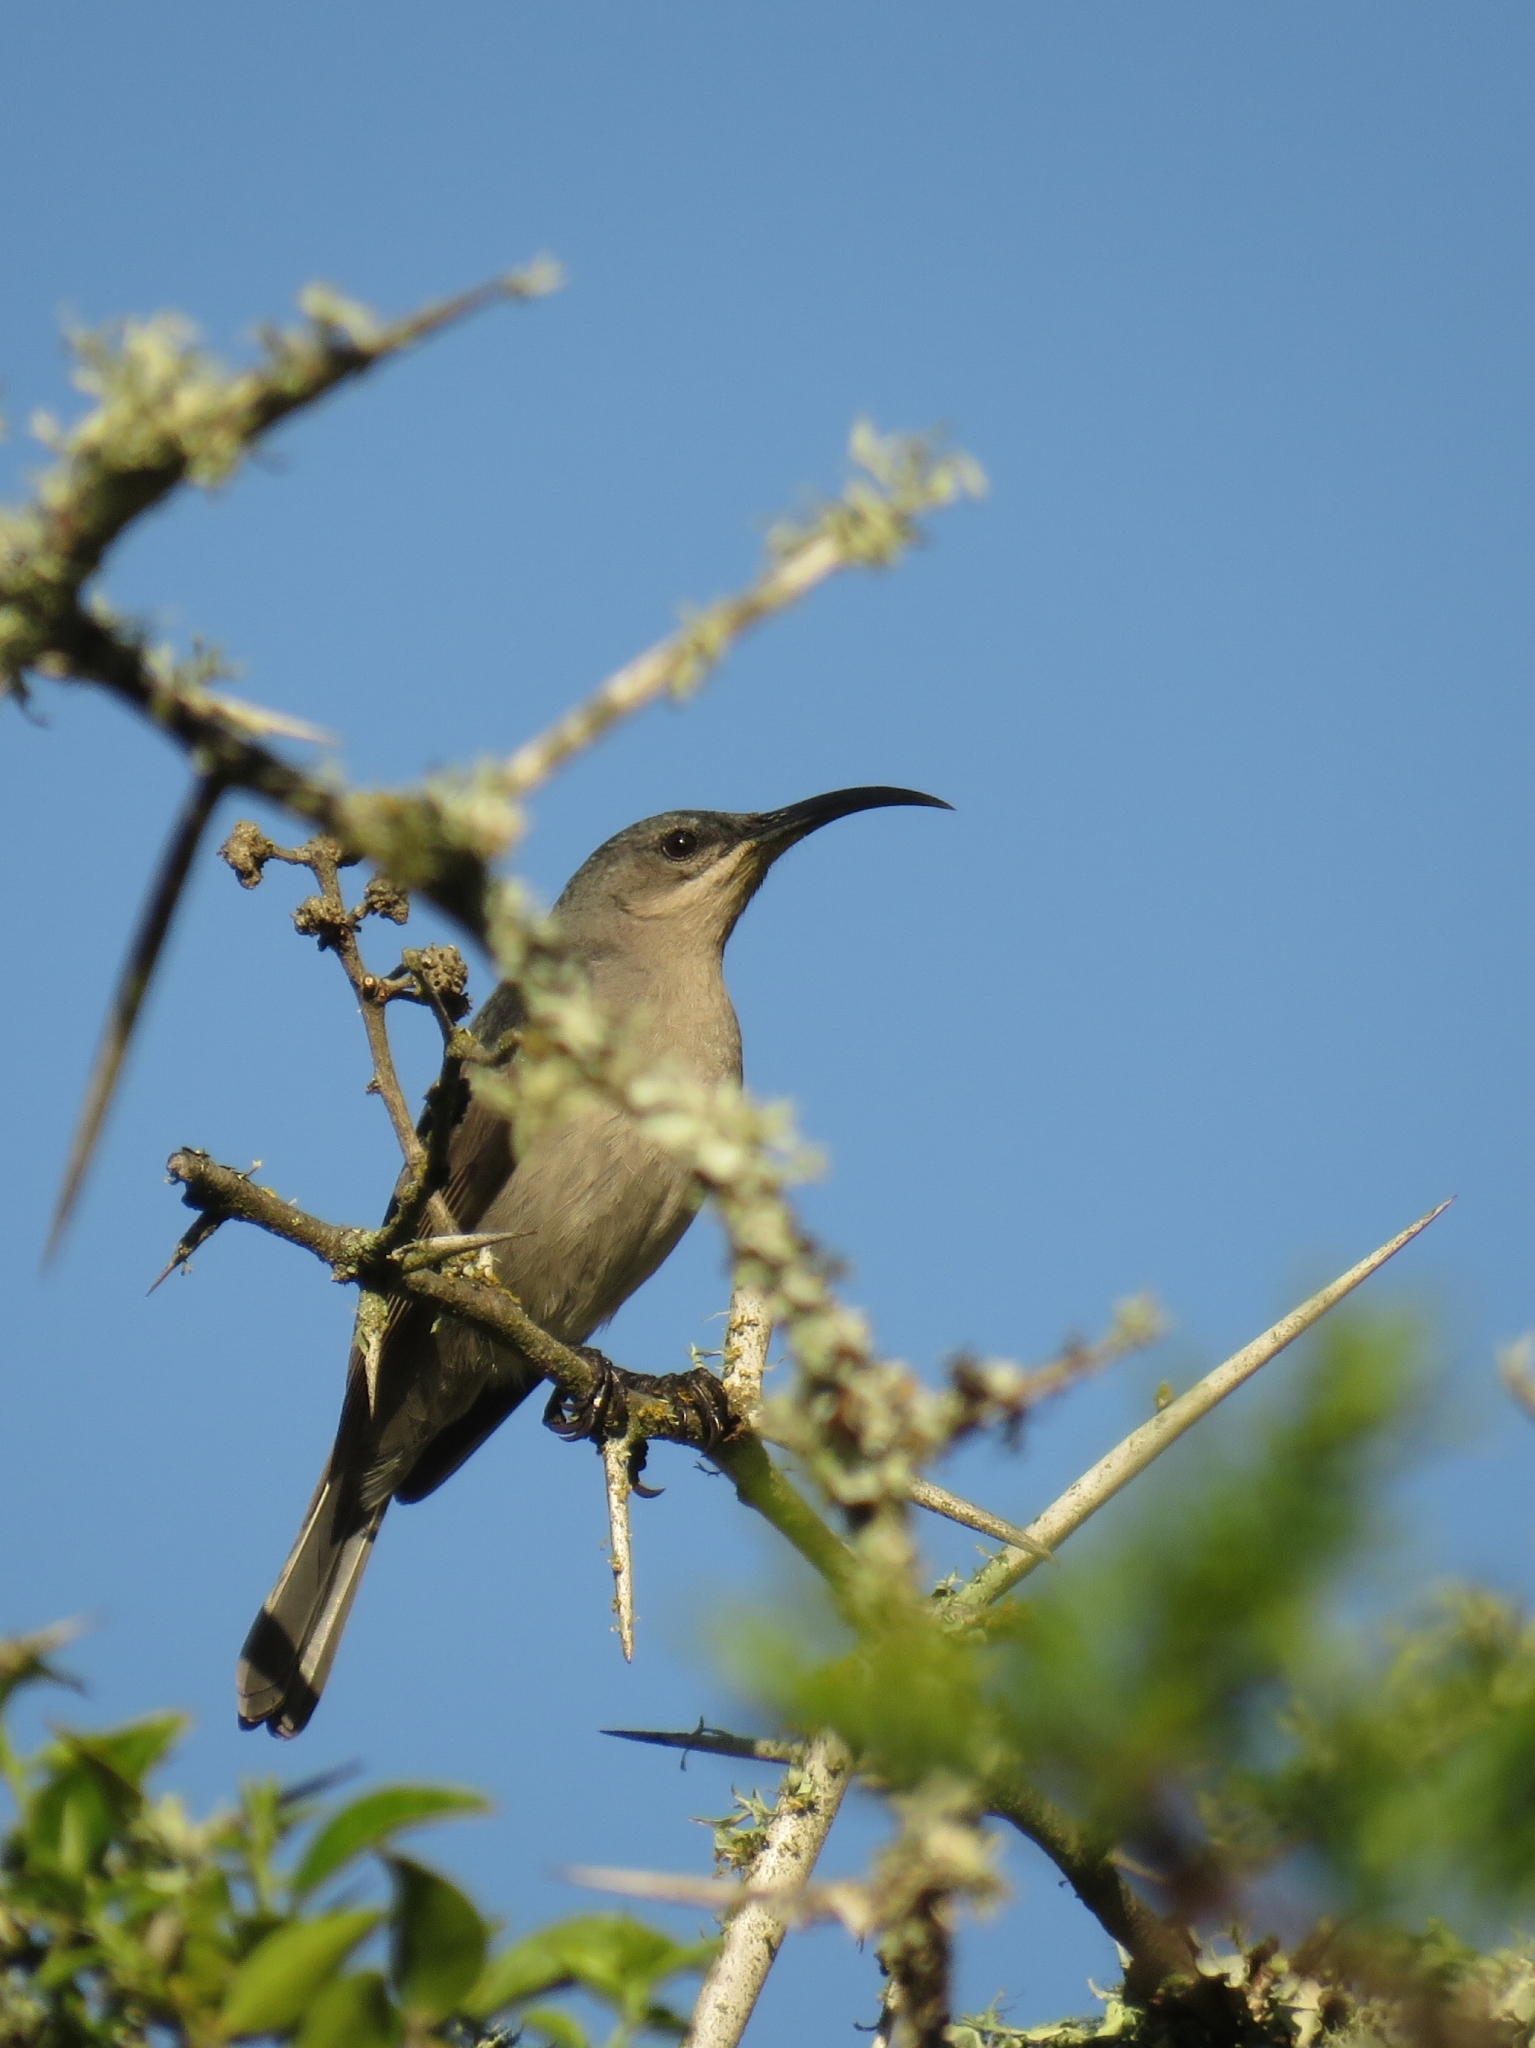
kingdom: Animalia
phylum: Chordata
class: Aves
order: Passeriformes
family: Nectariniidae
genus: Cyanomitra
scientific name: Cyanomitra veroxii
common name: Grey sunbird
